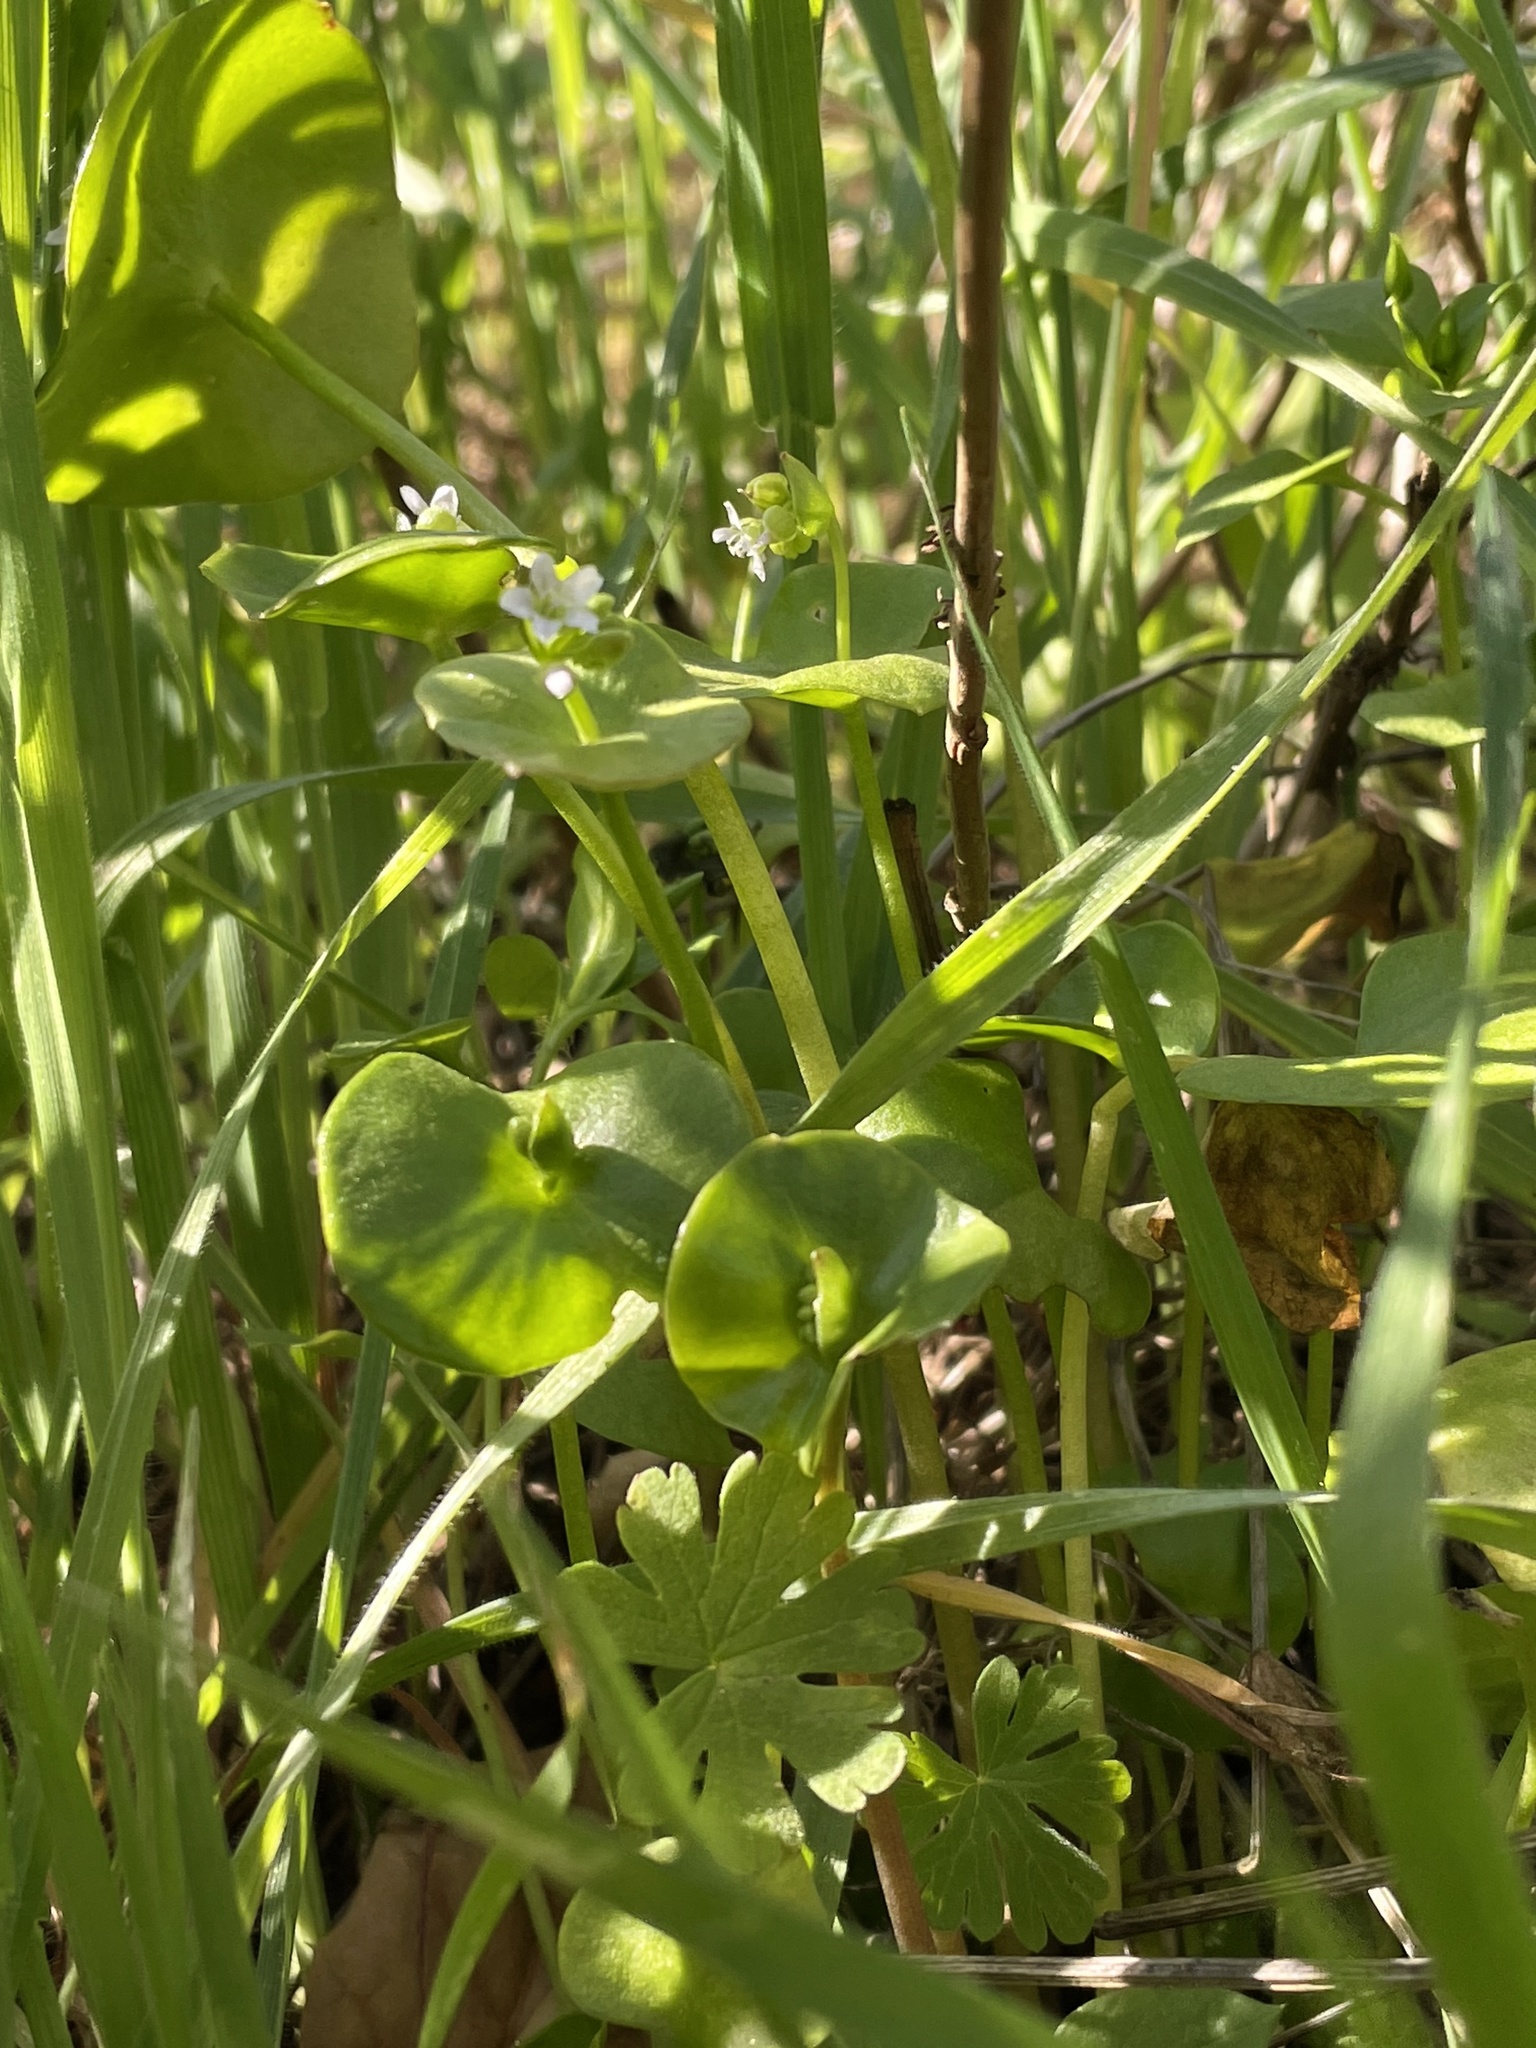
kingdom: Plantae
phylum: Tracheophyta
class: Magnoliopsida
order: Caryophyllales
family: Montiaceae
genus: Claytonia
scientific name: Claytonia perfoliata
